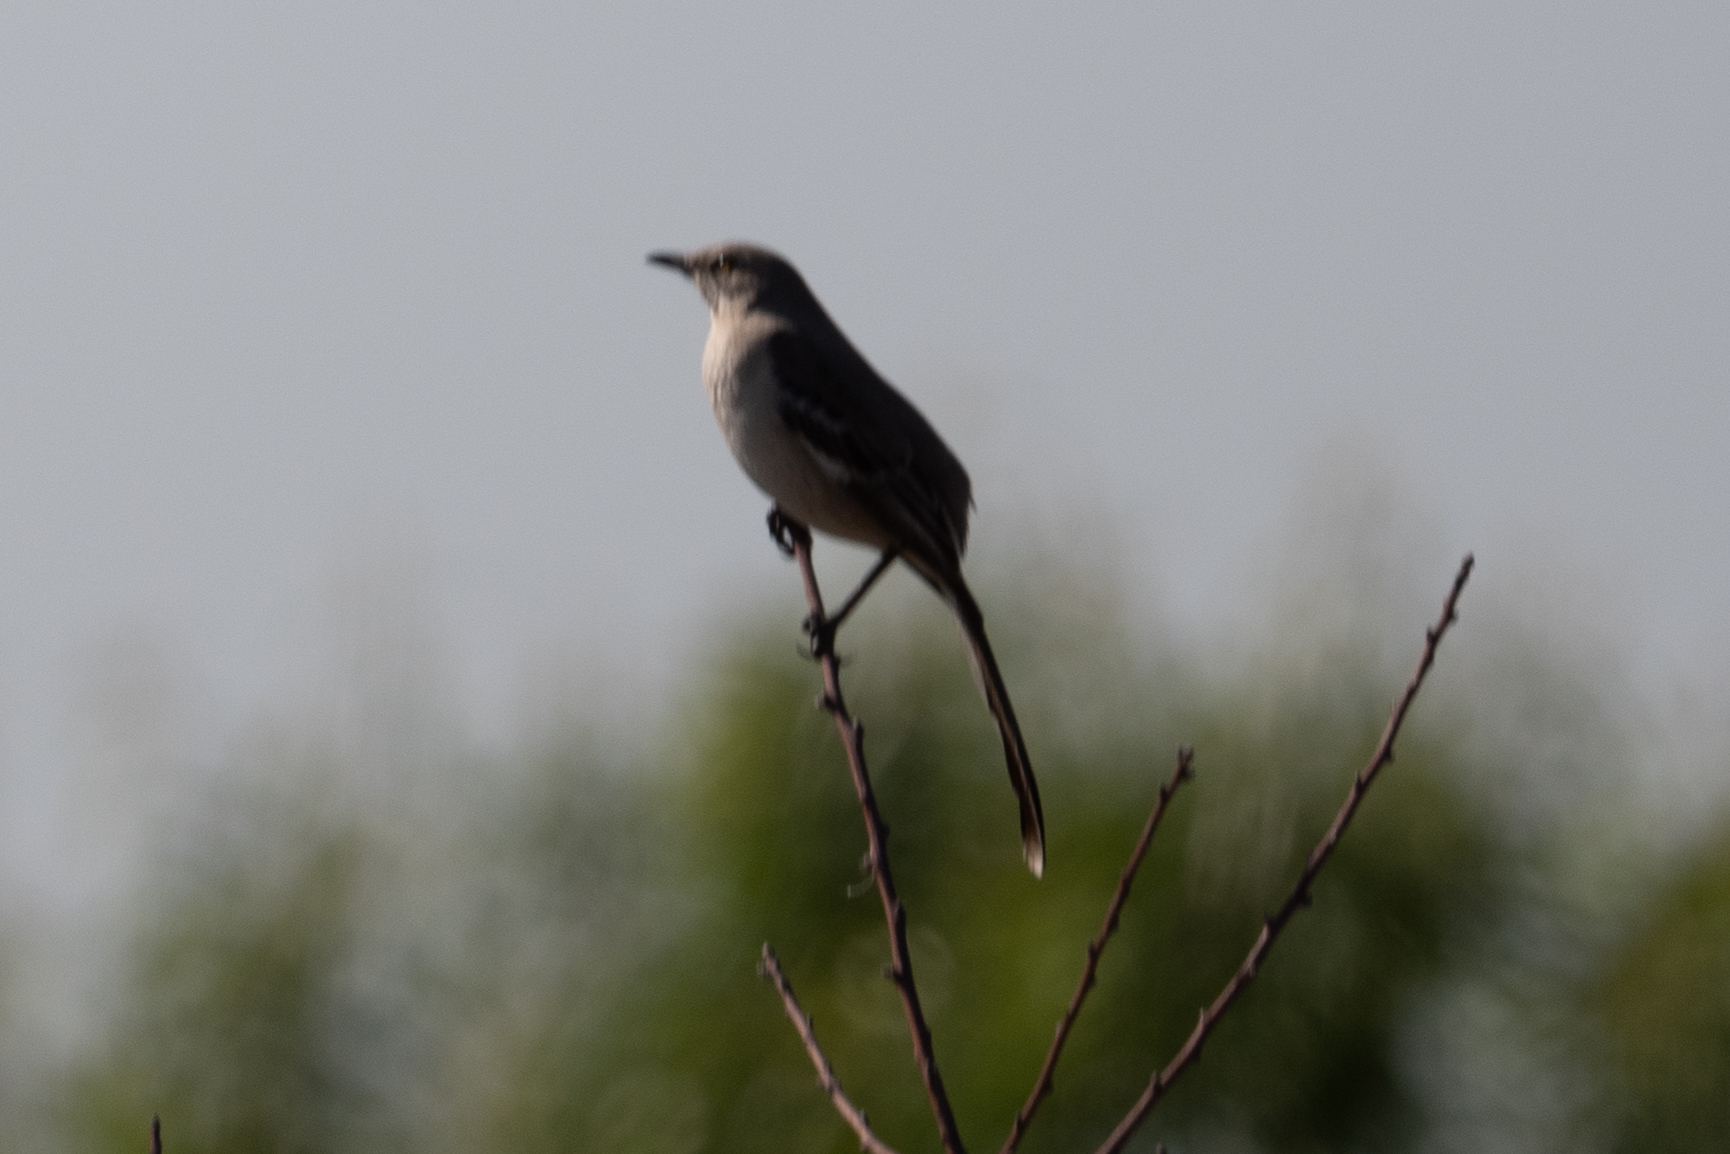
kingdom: Animalia
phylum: Chordata
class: Aves
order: Passeriformes
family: Mimidae
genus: Mimus
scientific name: Mimus polyglottos
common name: Northern mockingbird
